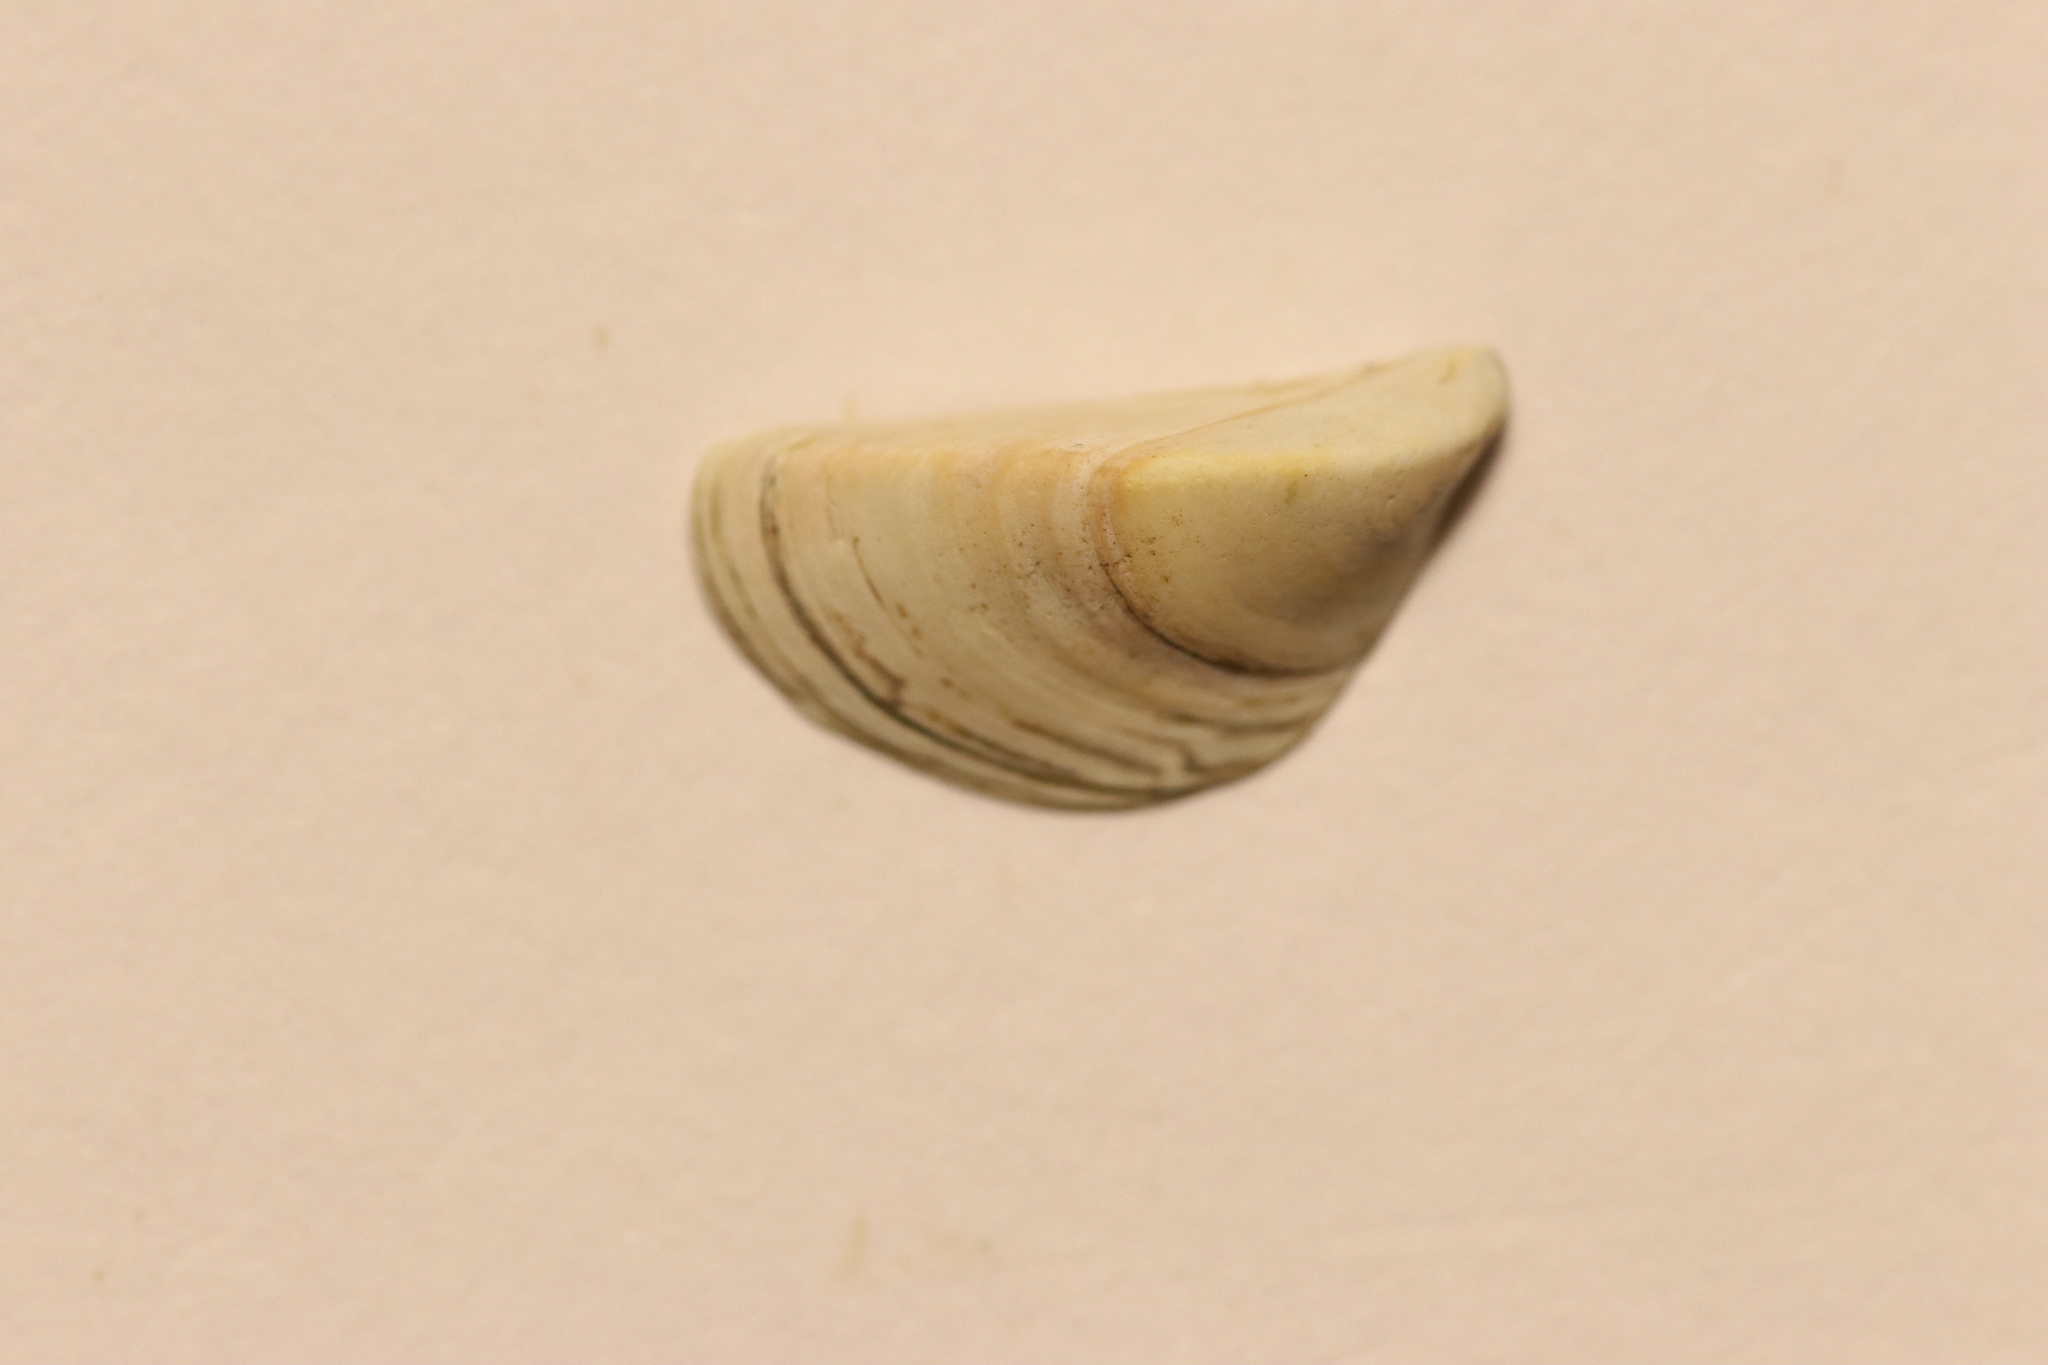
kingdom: Animalia
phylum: Mollusca
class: Bivalvia
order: Myida
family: Dreissenidae
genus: Dreissena
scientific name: Dreissena polymorpha
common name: Zebra mussel
